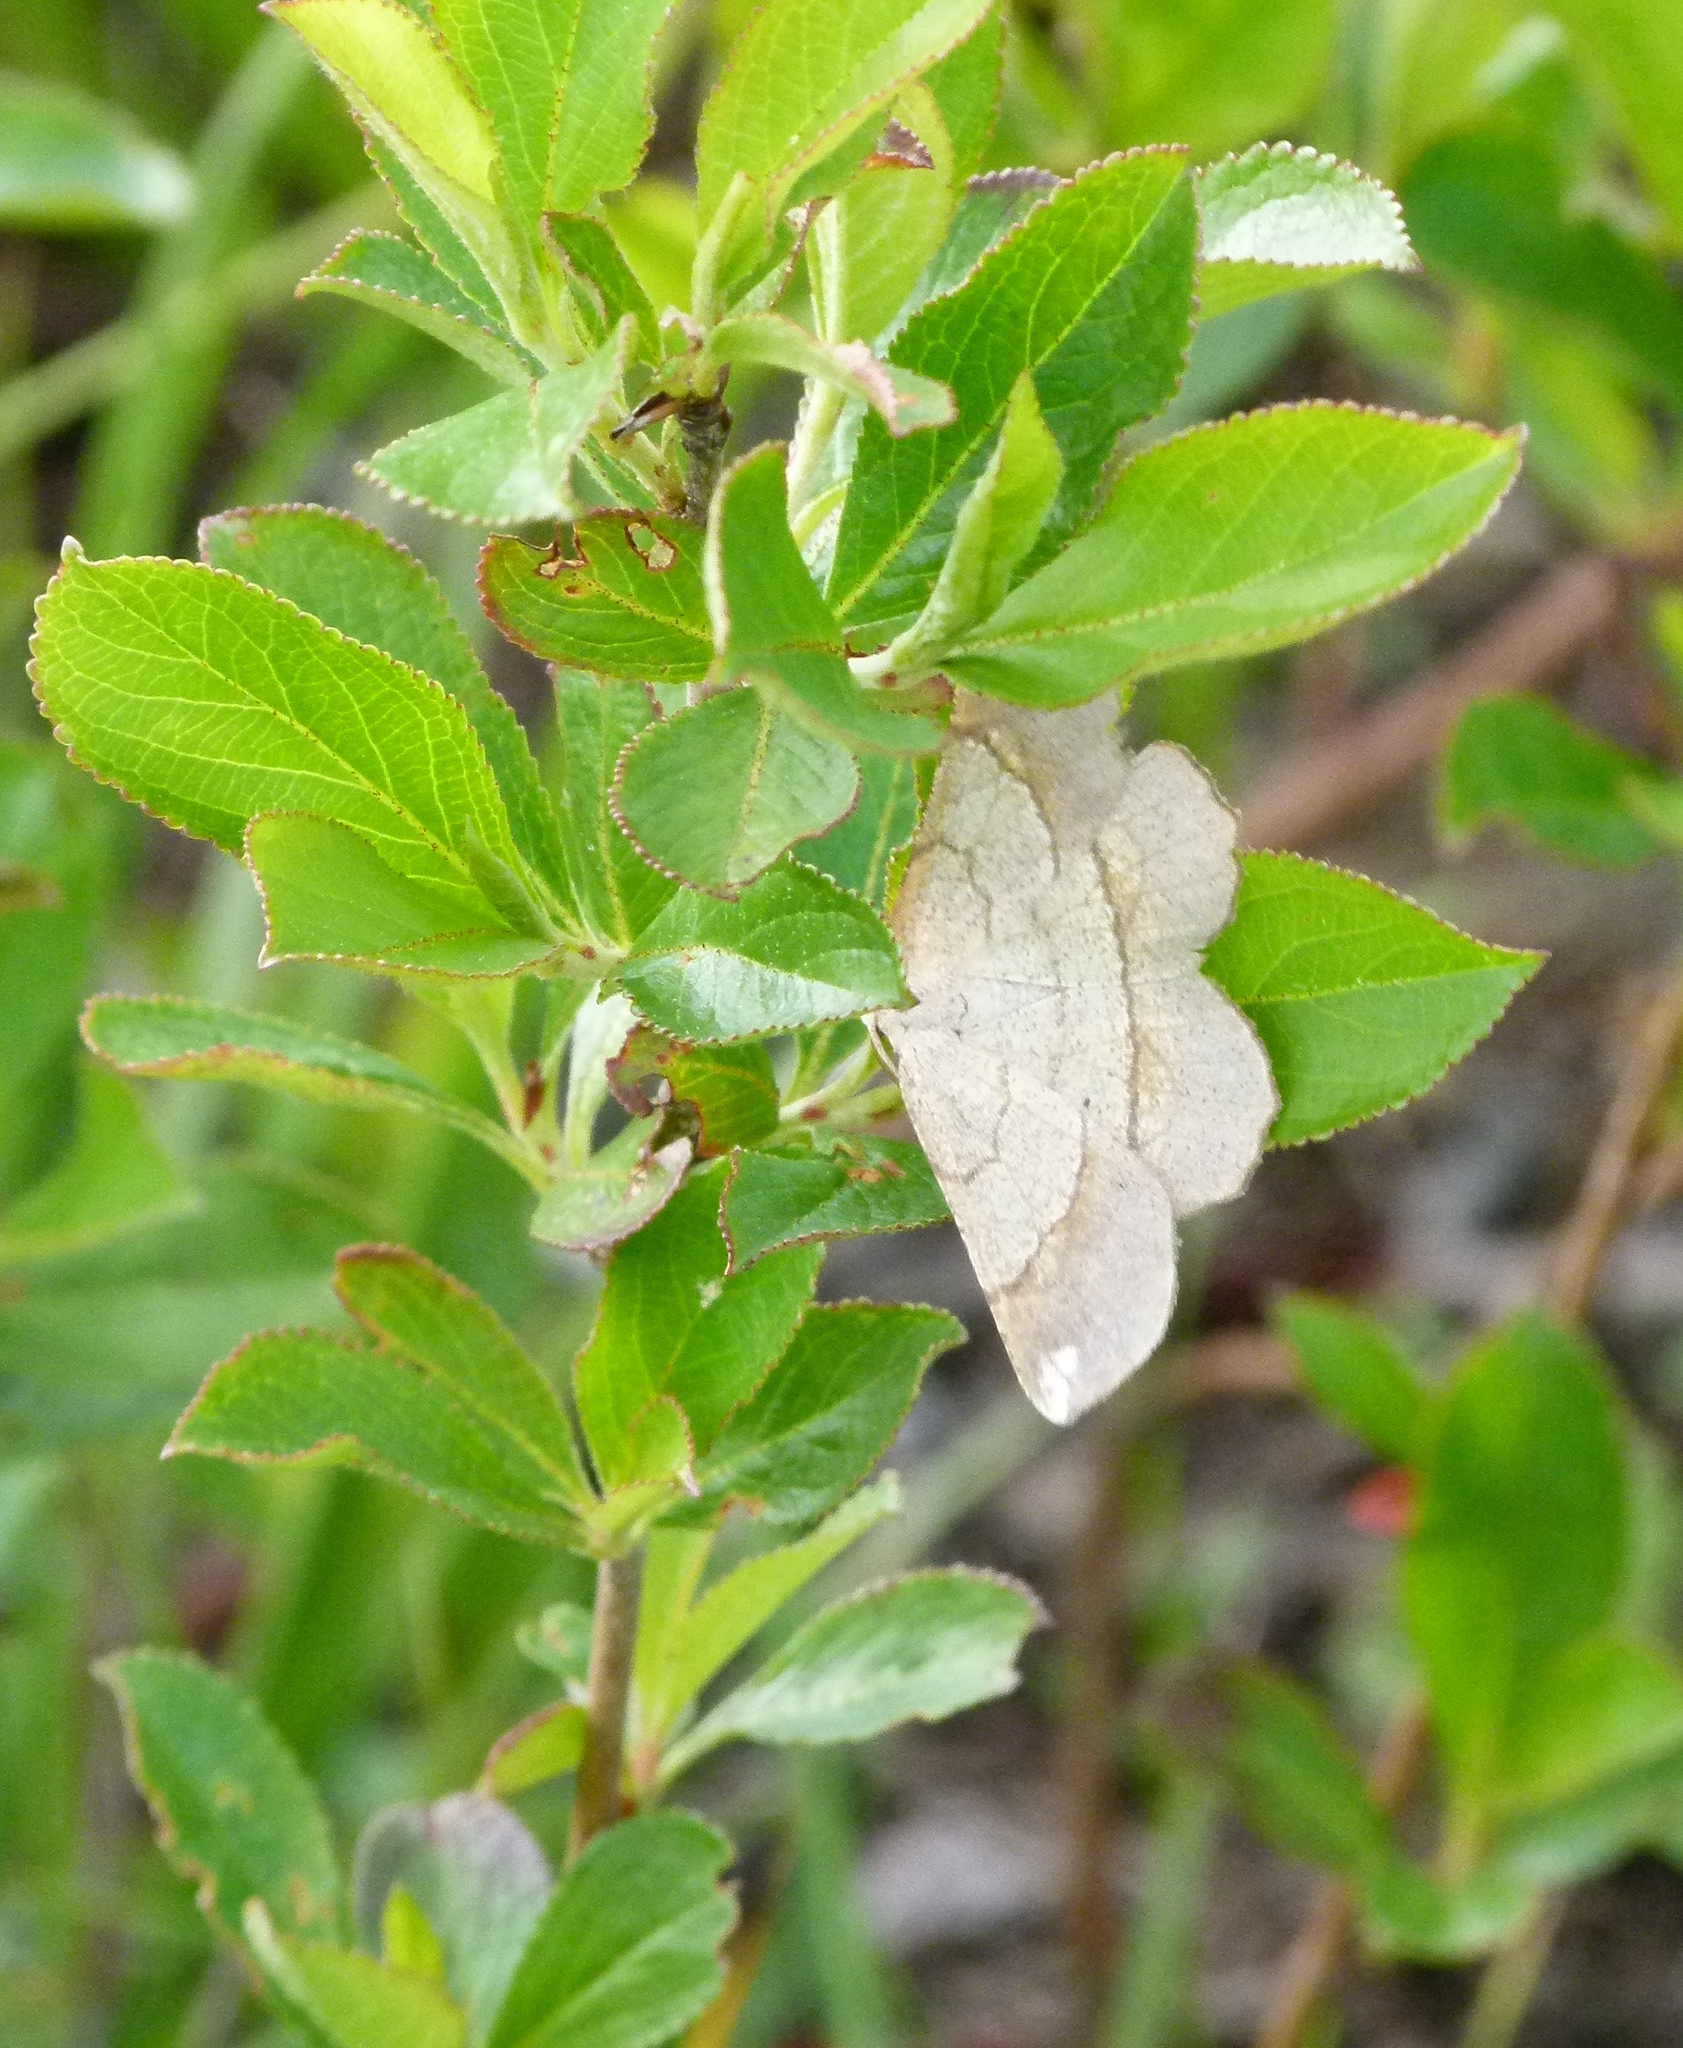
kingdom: Animalia
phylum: Arthropoda
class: Insecta
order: Lepidoptera
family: Geometridae
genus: Euchlaena
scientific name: Euchlaena madusaria
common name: Scrub euchlaena moth
